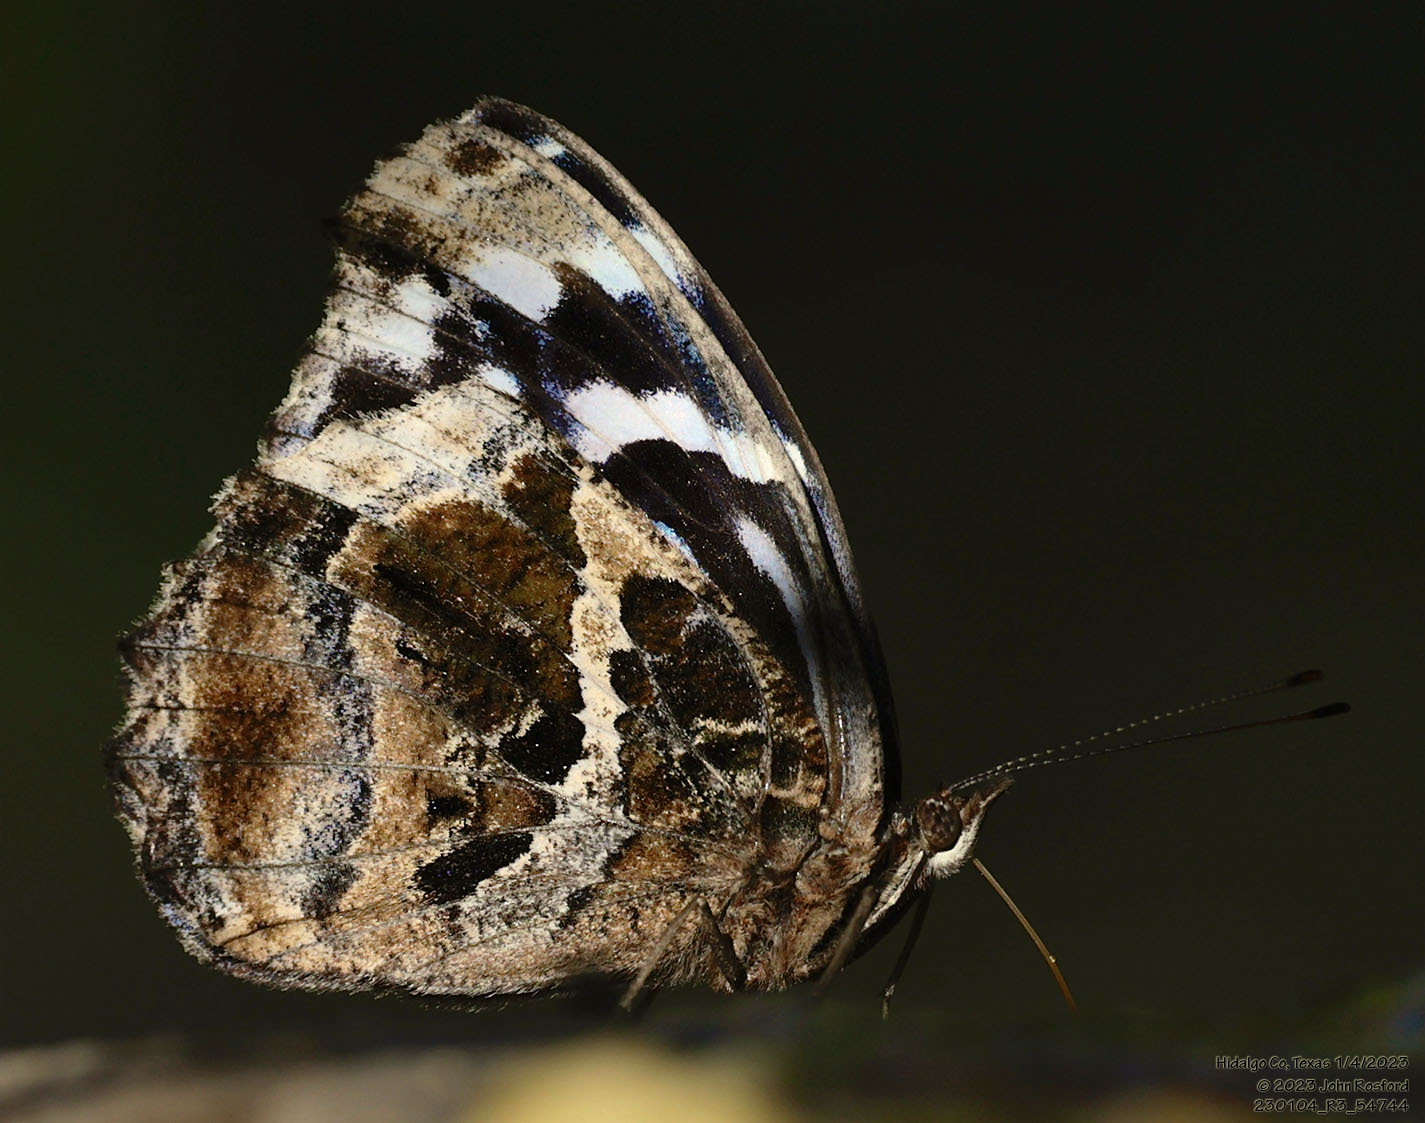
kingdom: Animalia
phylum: Arthropoda
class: Insecta
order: Lepidoptera
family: Nymphalidae
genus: Myscelia
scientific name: Myscelia ethusa
